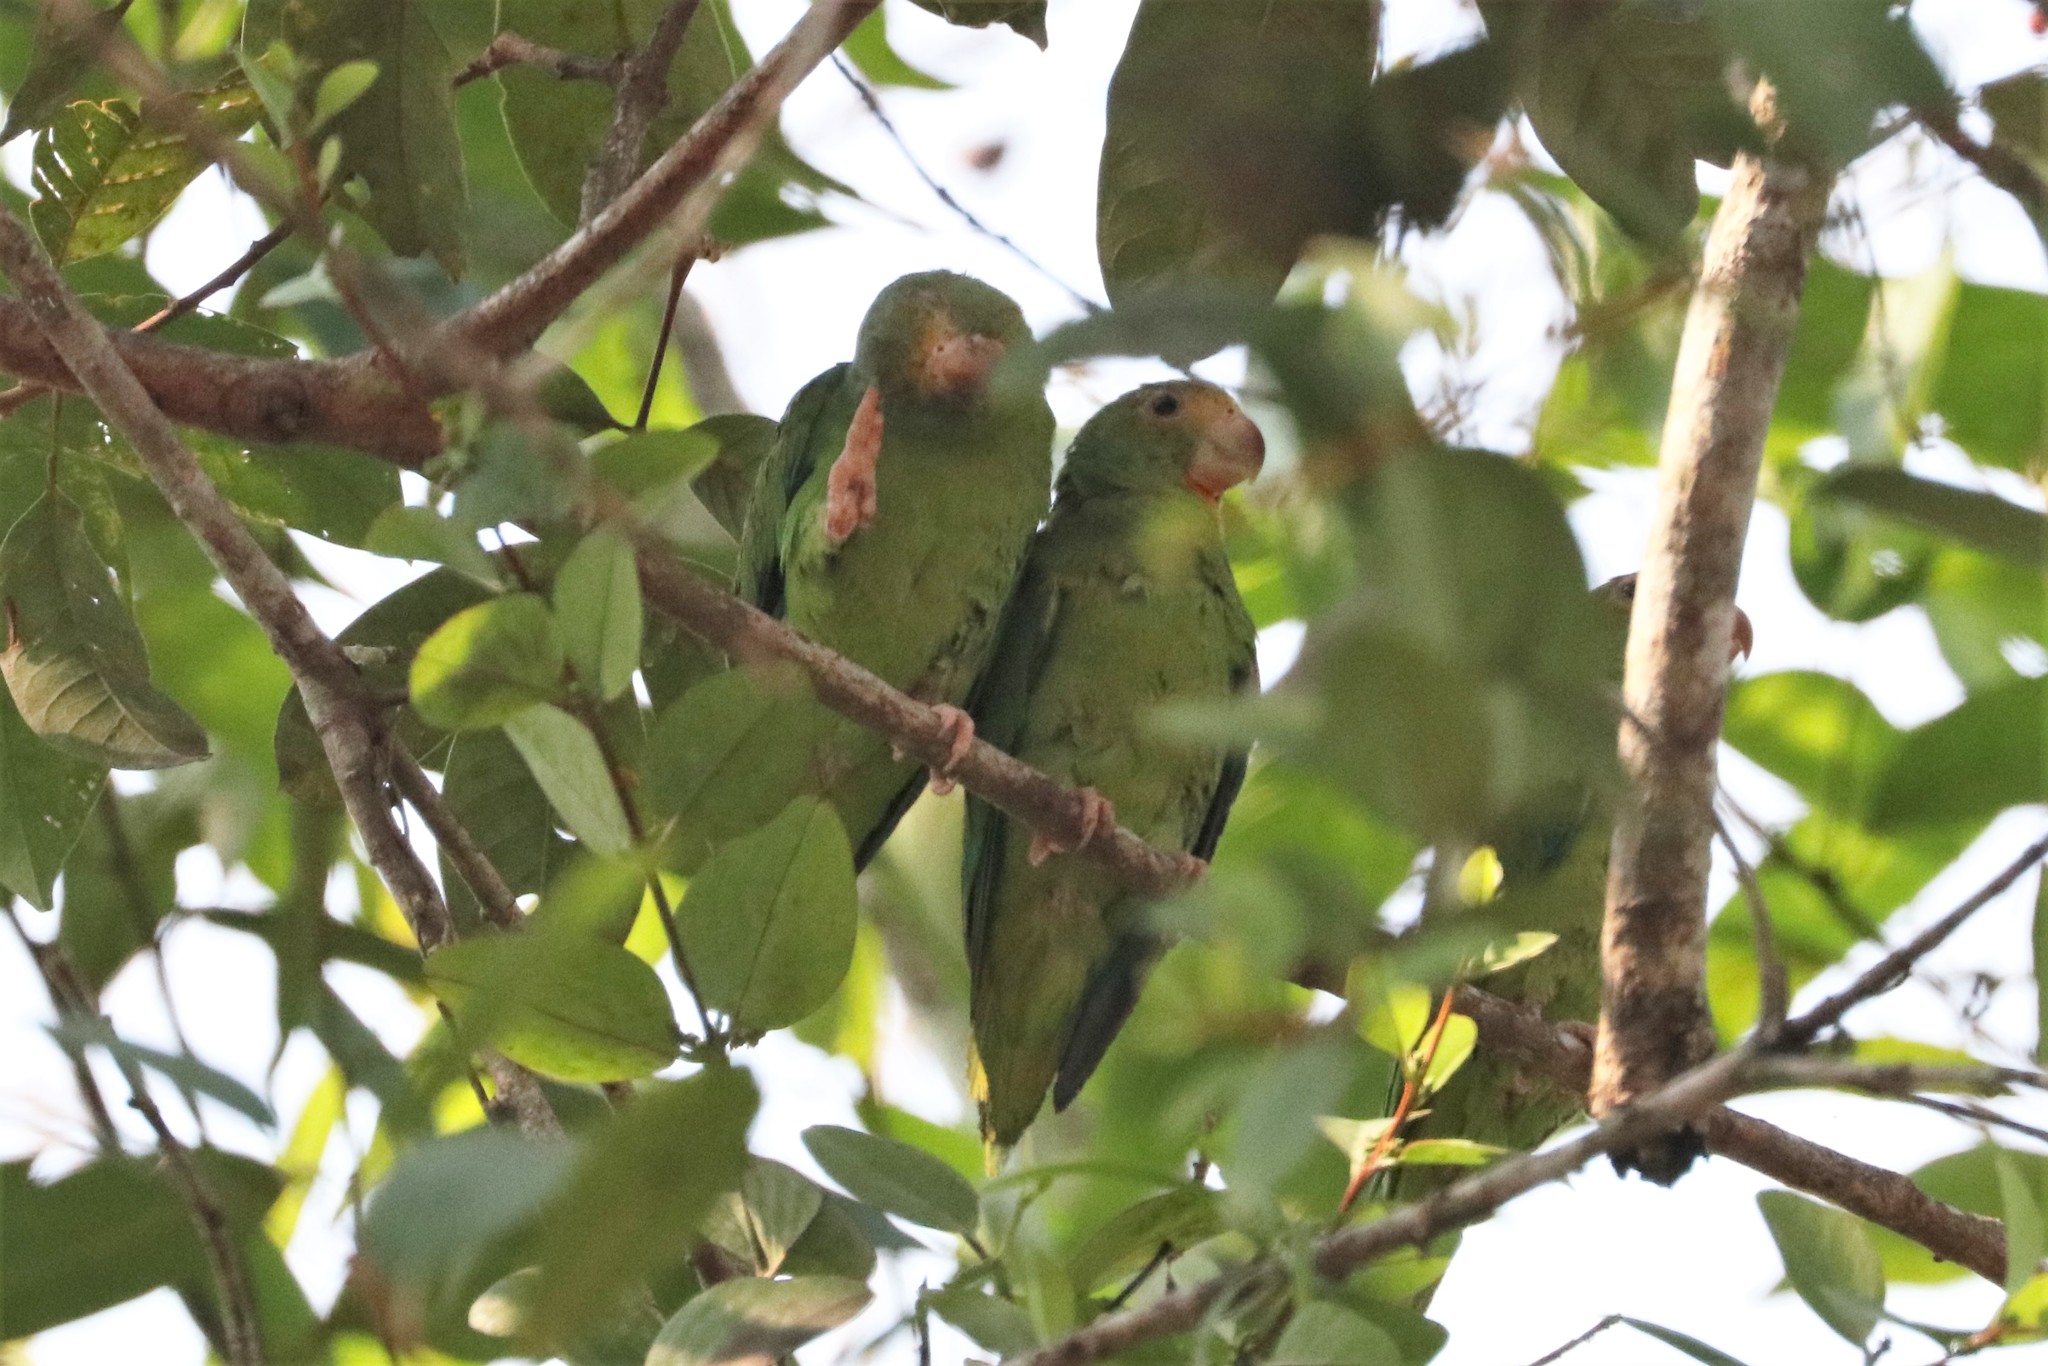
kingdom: Animalia
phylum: Chordata
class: Aves
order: Psittaciformes
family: Psittacidae
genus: Brotogeris
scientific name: Brotogeris cyanoptera
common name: Cobalt-winged parakeet
